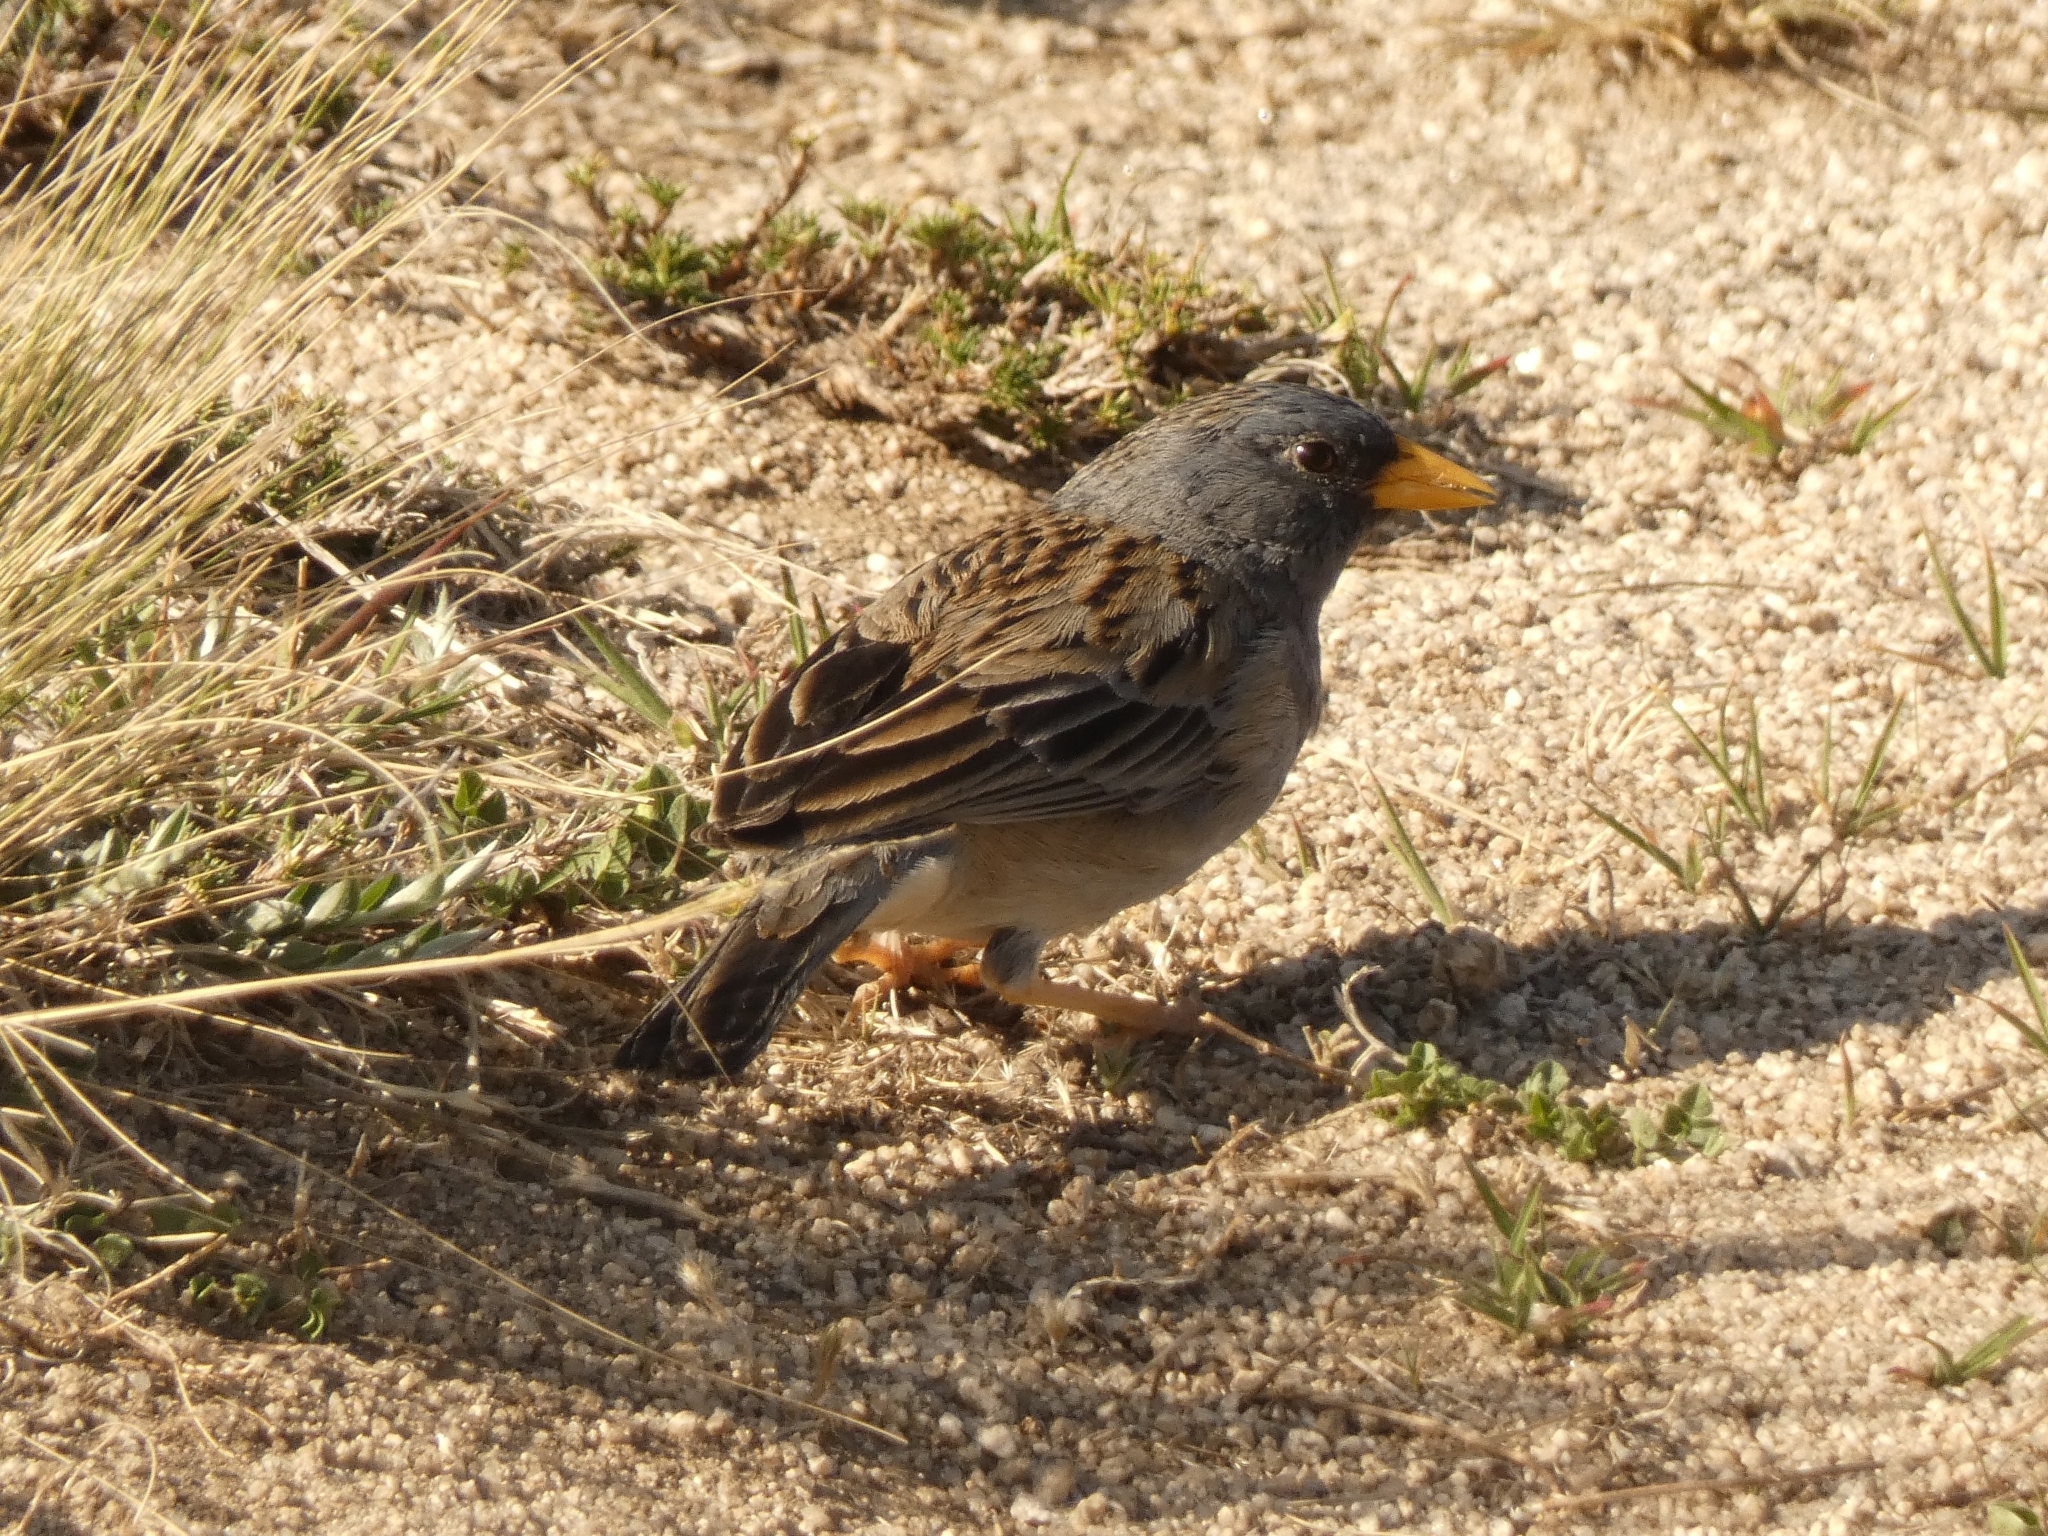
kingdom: Animalia
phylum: Chordata
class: Aves
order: Passeriformes
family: Thraupidae
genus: Porphyrospiza
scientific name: Porphyrospiza alaudina
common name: Band-tailed sierra finch
